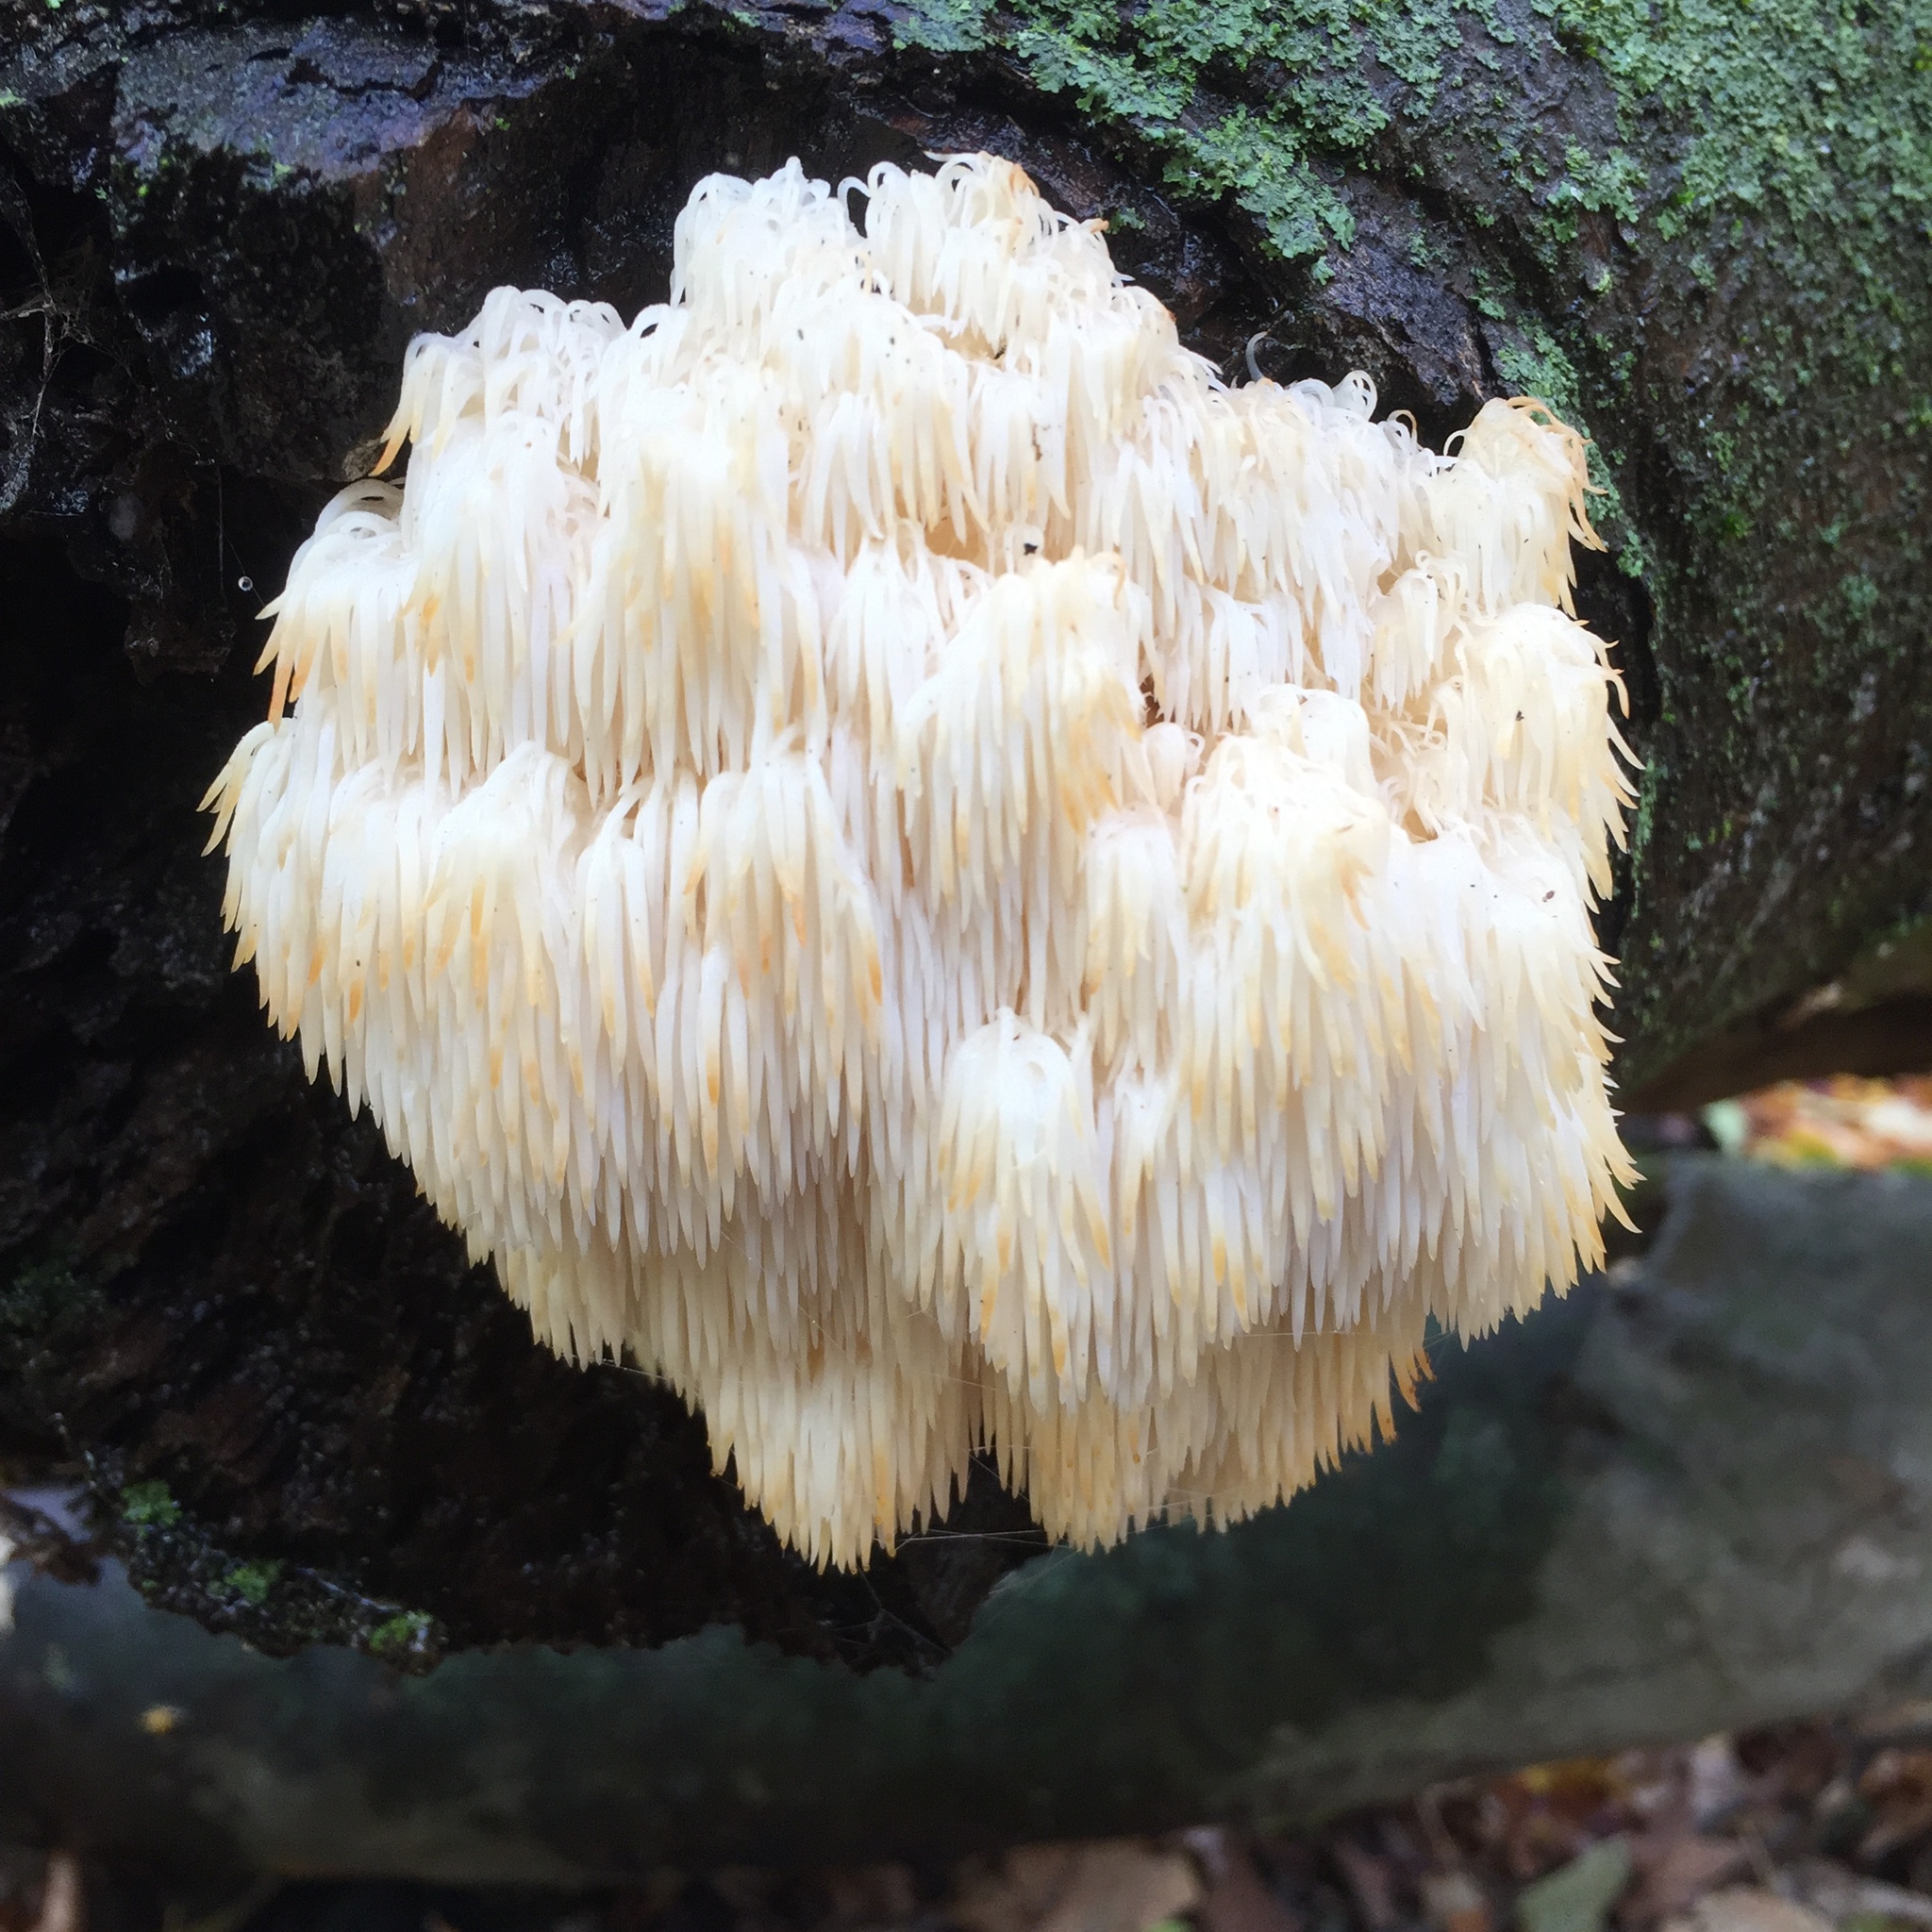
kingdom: Fungi
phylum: Basidiomycota
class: Agaricomycetes
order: Russulales
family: Hericiaceae
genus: Hericium
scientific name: Hericium americanum
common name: Bear's head tooth
